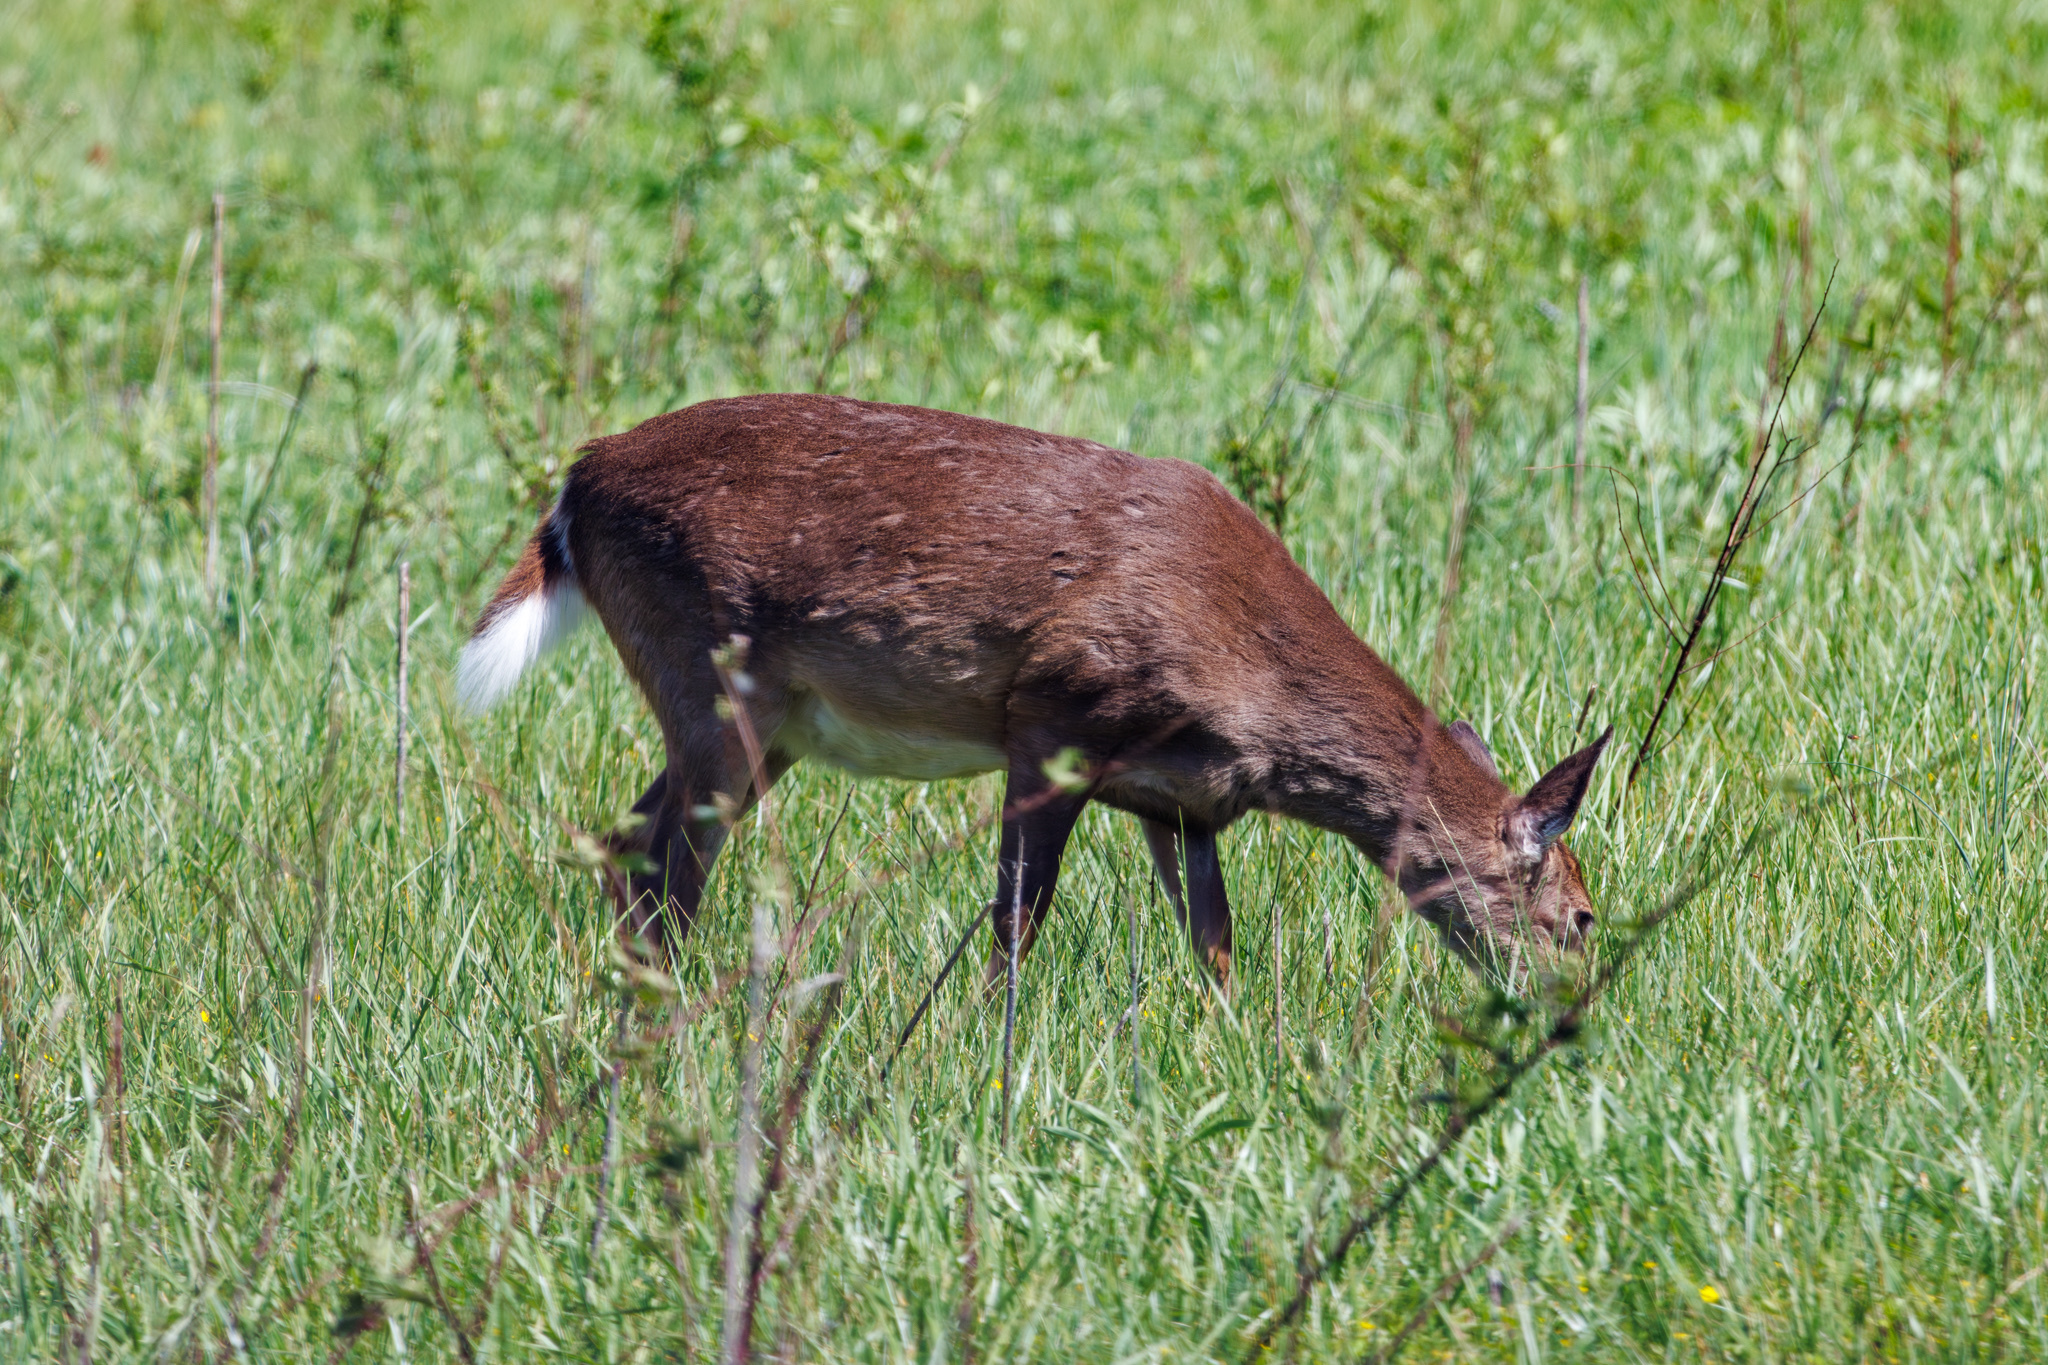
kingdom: Animalia
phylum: Chordata
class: Mammalia
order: Artiodactyla
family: Cervidae
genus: Odocoileus
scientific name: Odocoileus virginianus
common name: White-tailed deer
